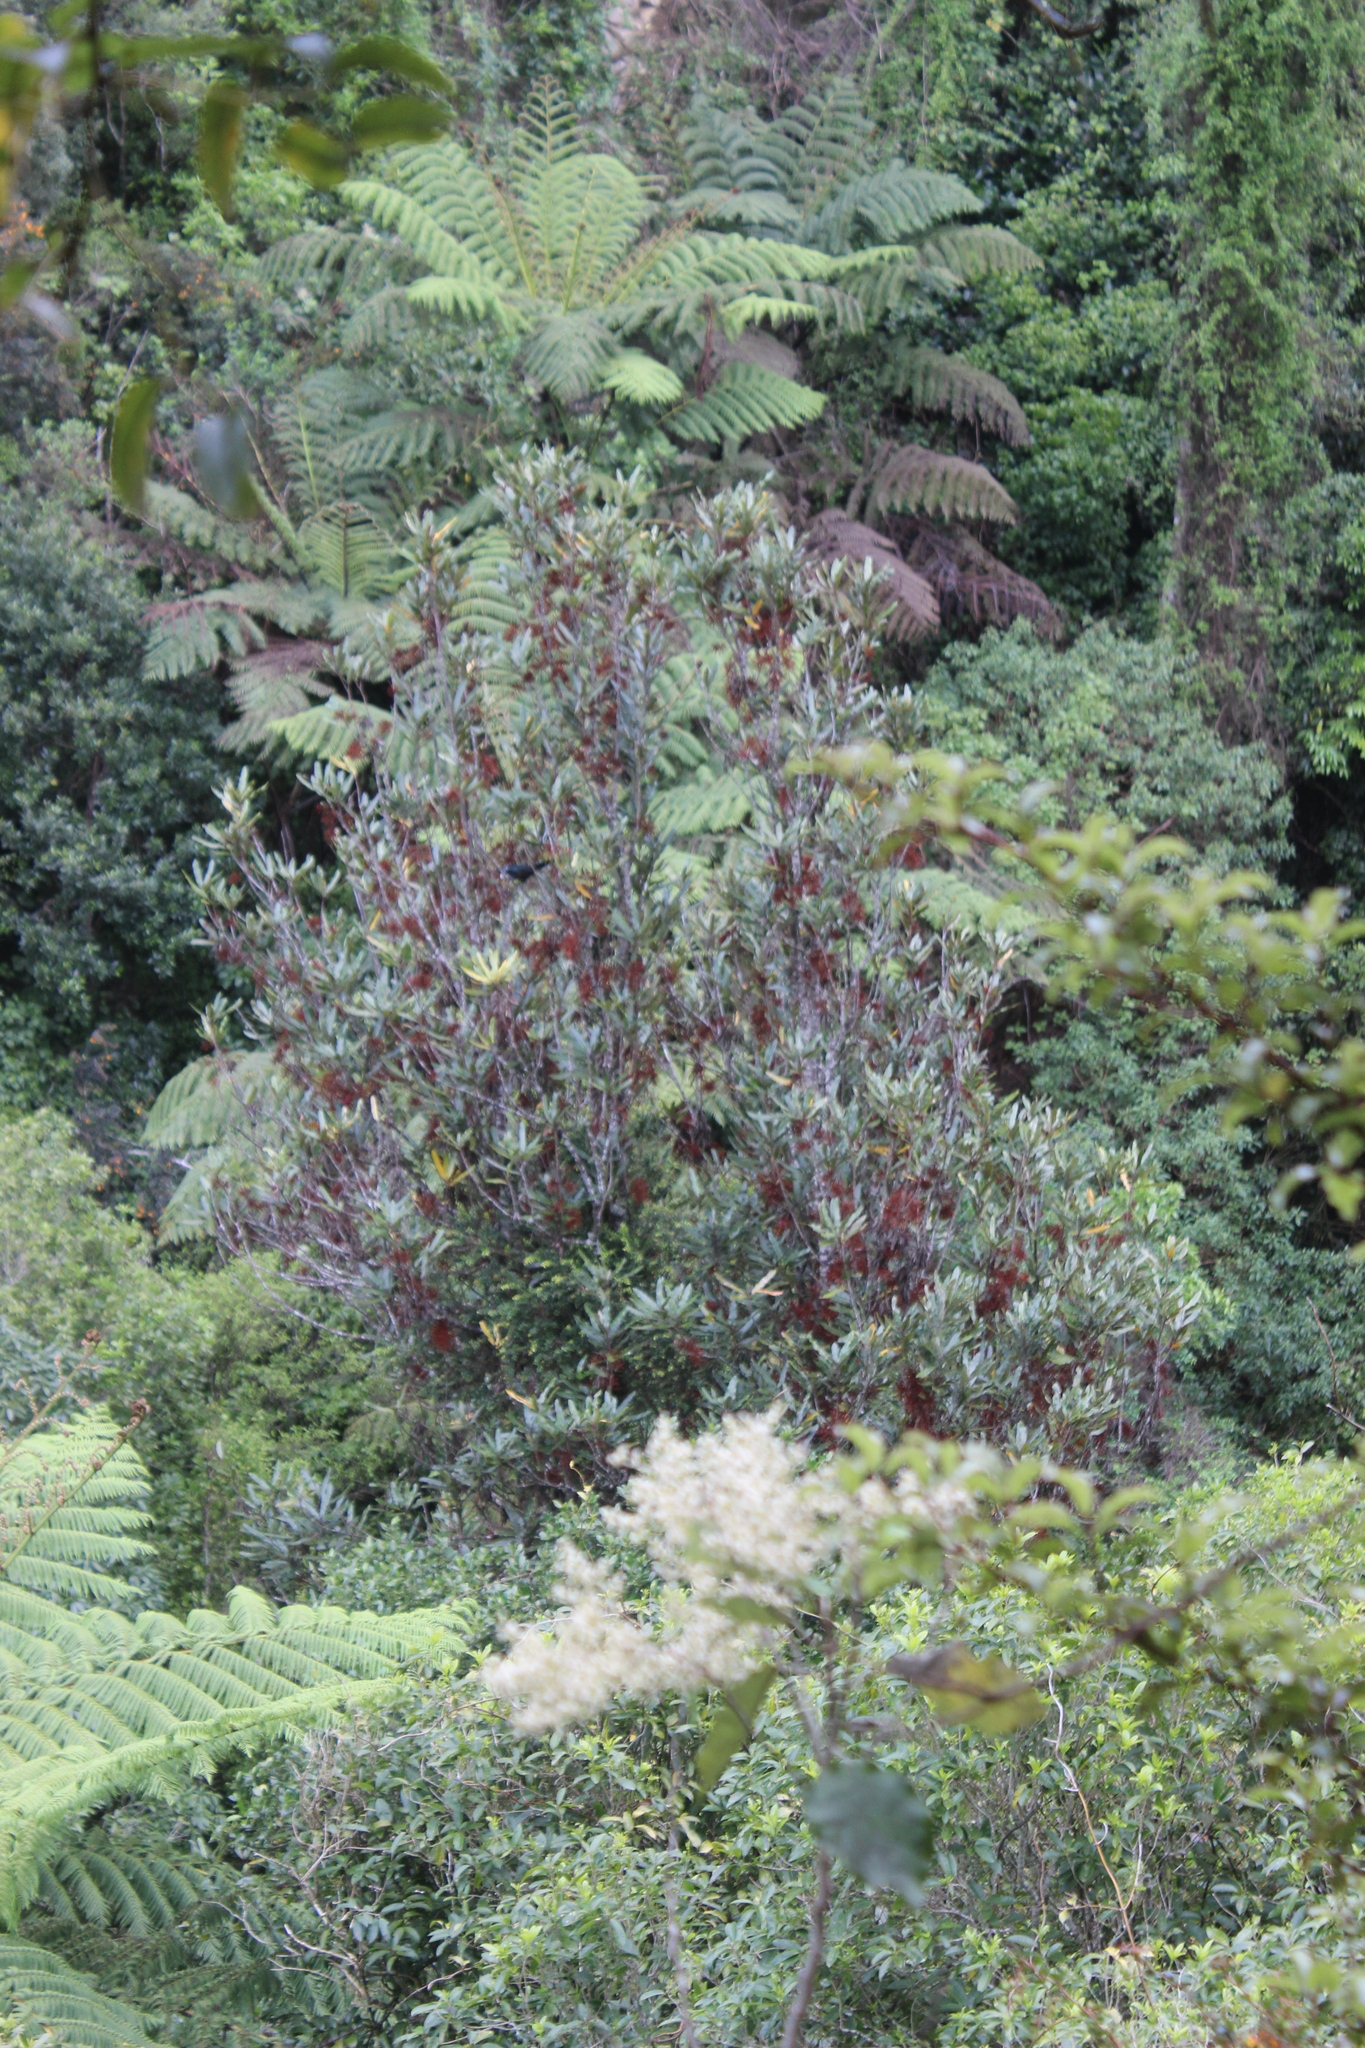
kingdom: Plantae
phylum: Tracheophyta
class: Magnoliopsida
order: Proteales
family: Proteaceae
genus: Knightia
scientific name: Knightia excelsa
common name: New zealand-honeysuckle
